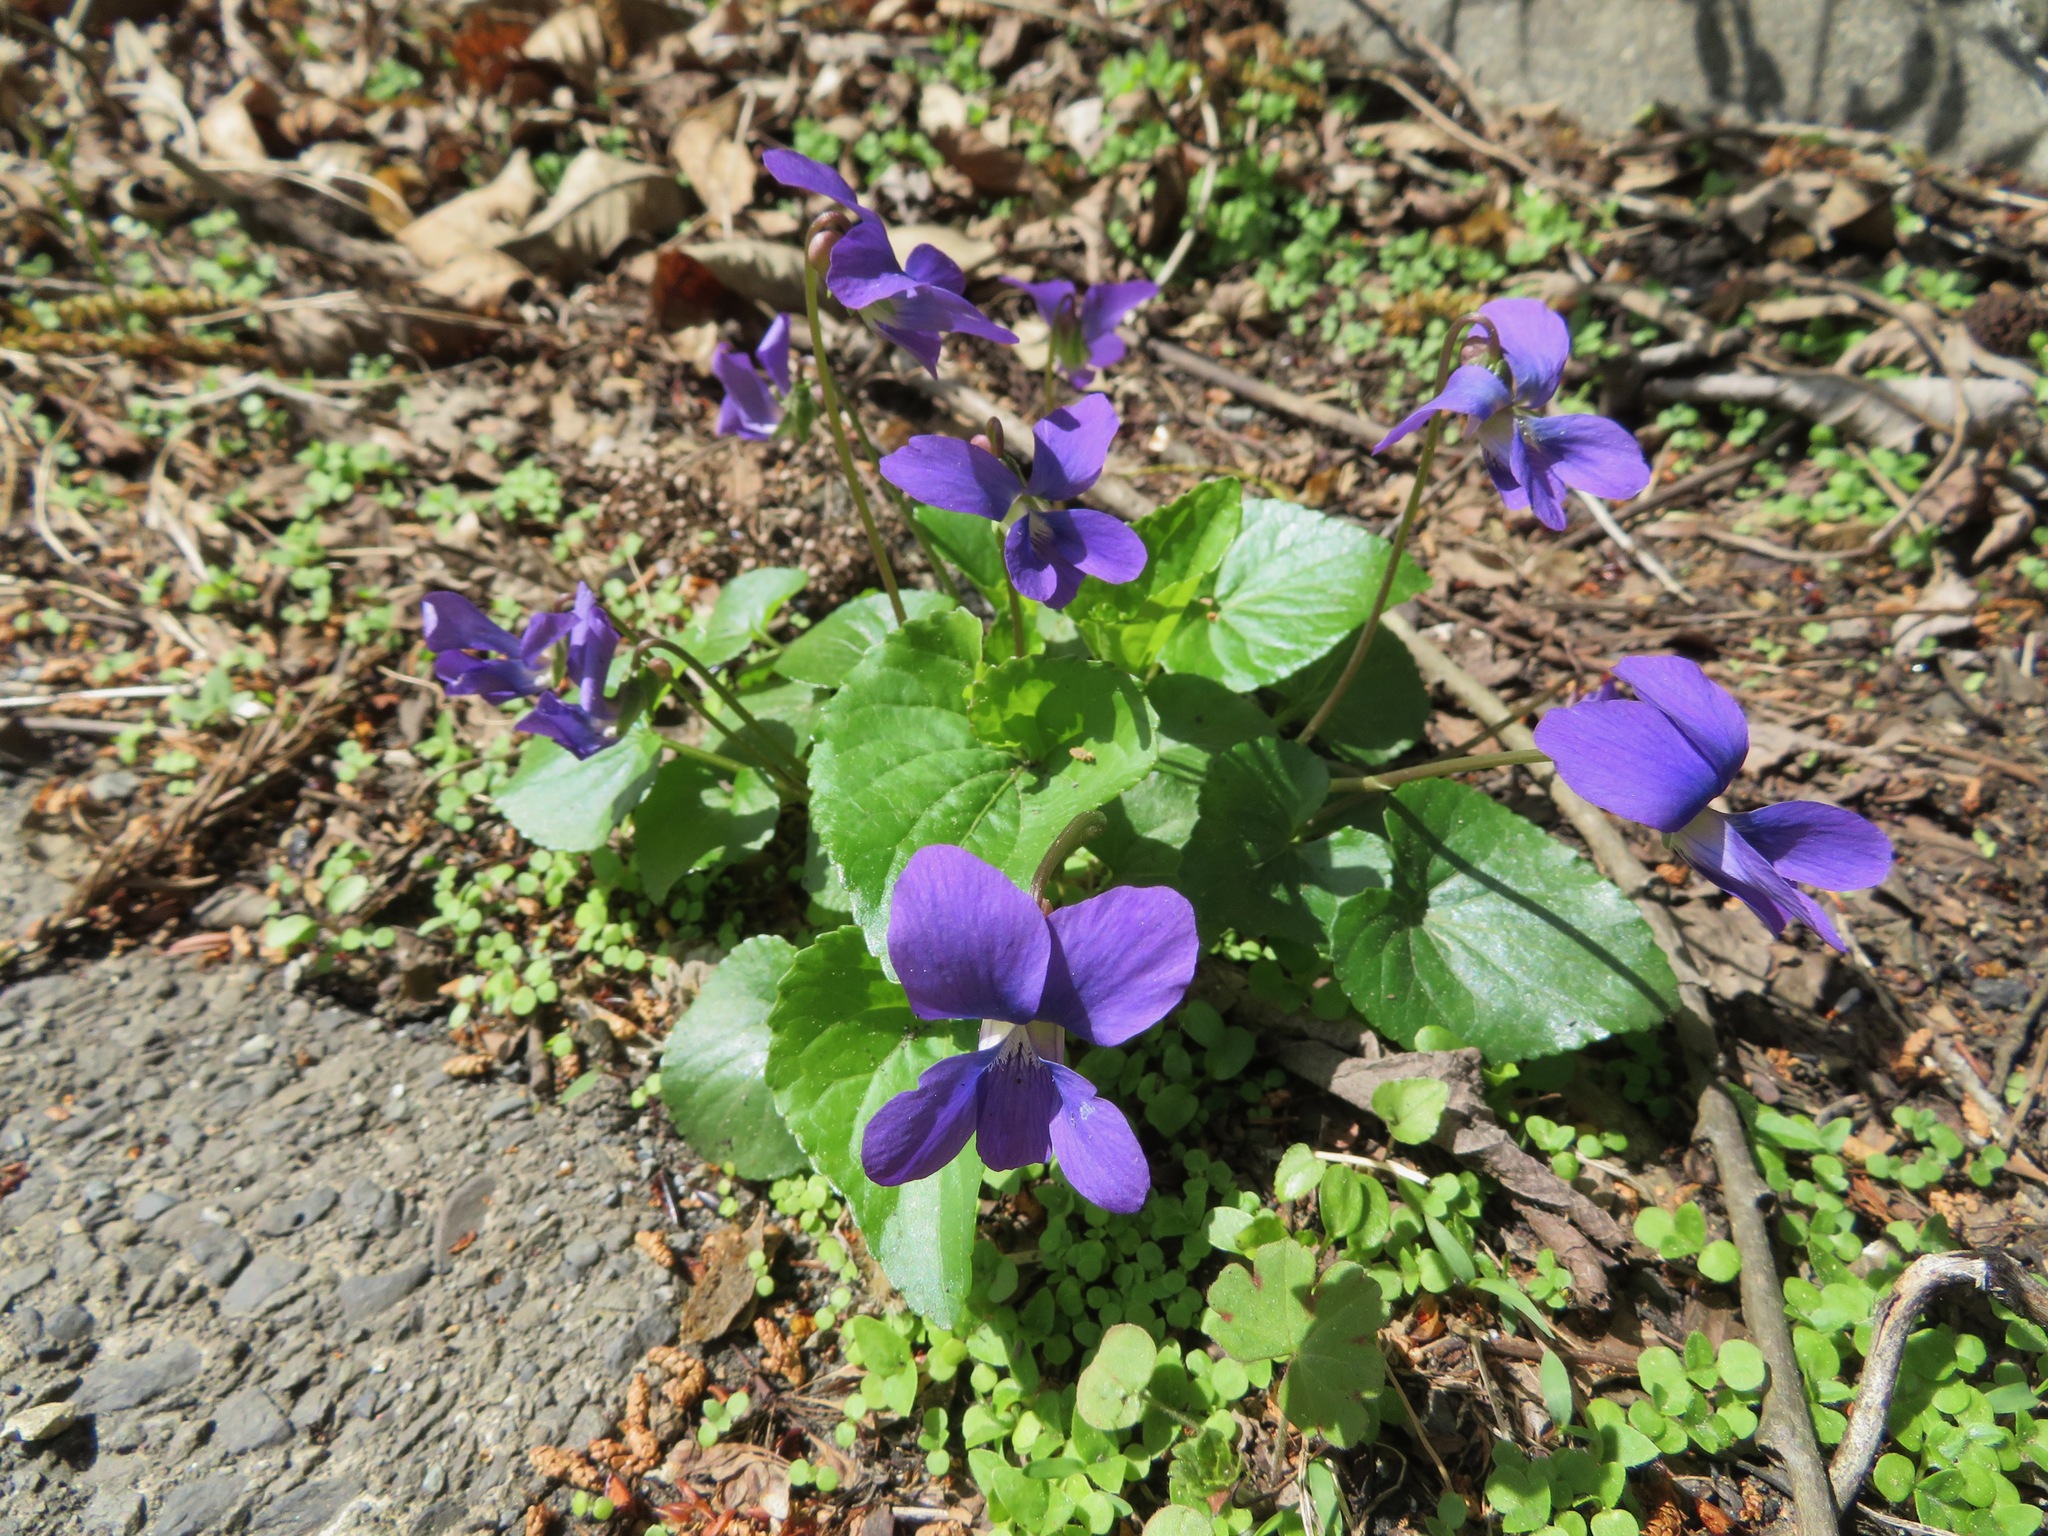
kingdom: Plantae
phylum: Tracheophyta
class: Magnoliopsida
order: Malpighiales
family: Violaceae
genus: Viola
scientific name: Viola sororia
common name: Dooryard violet
